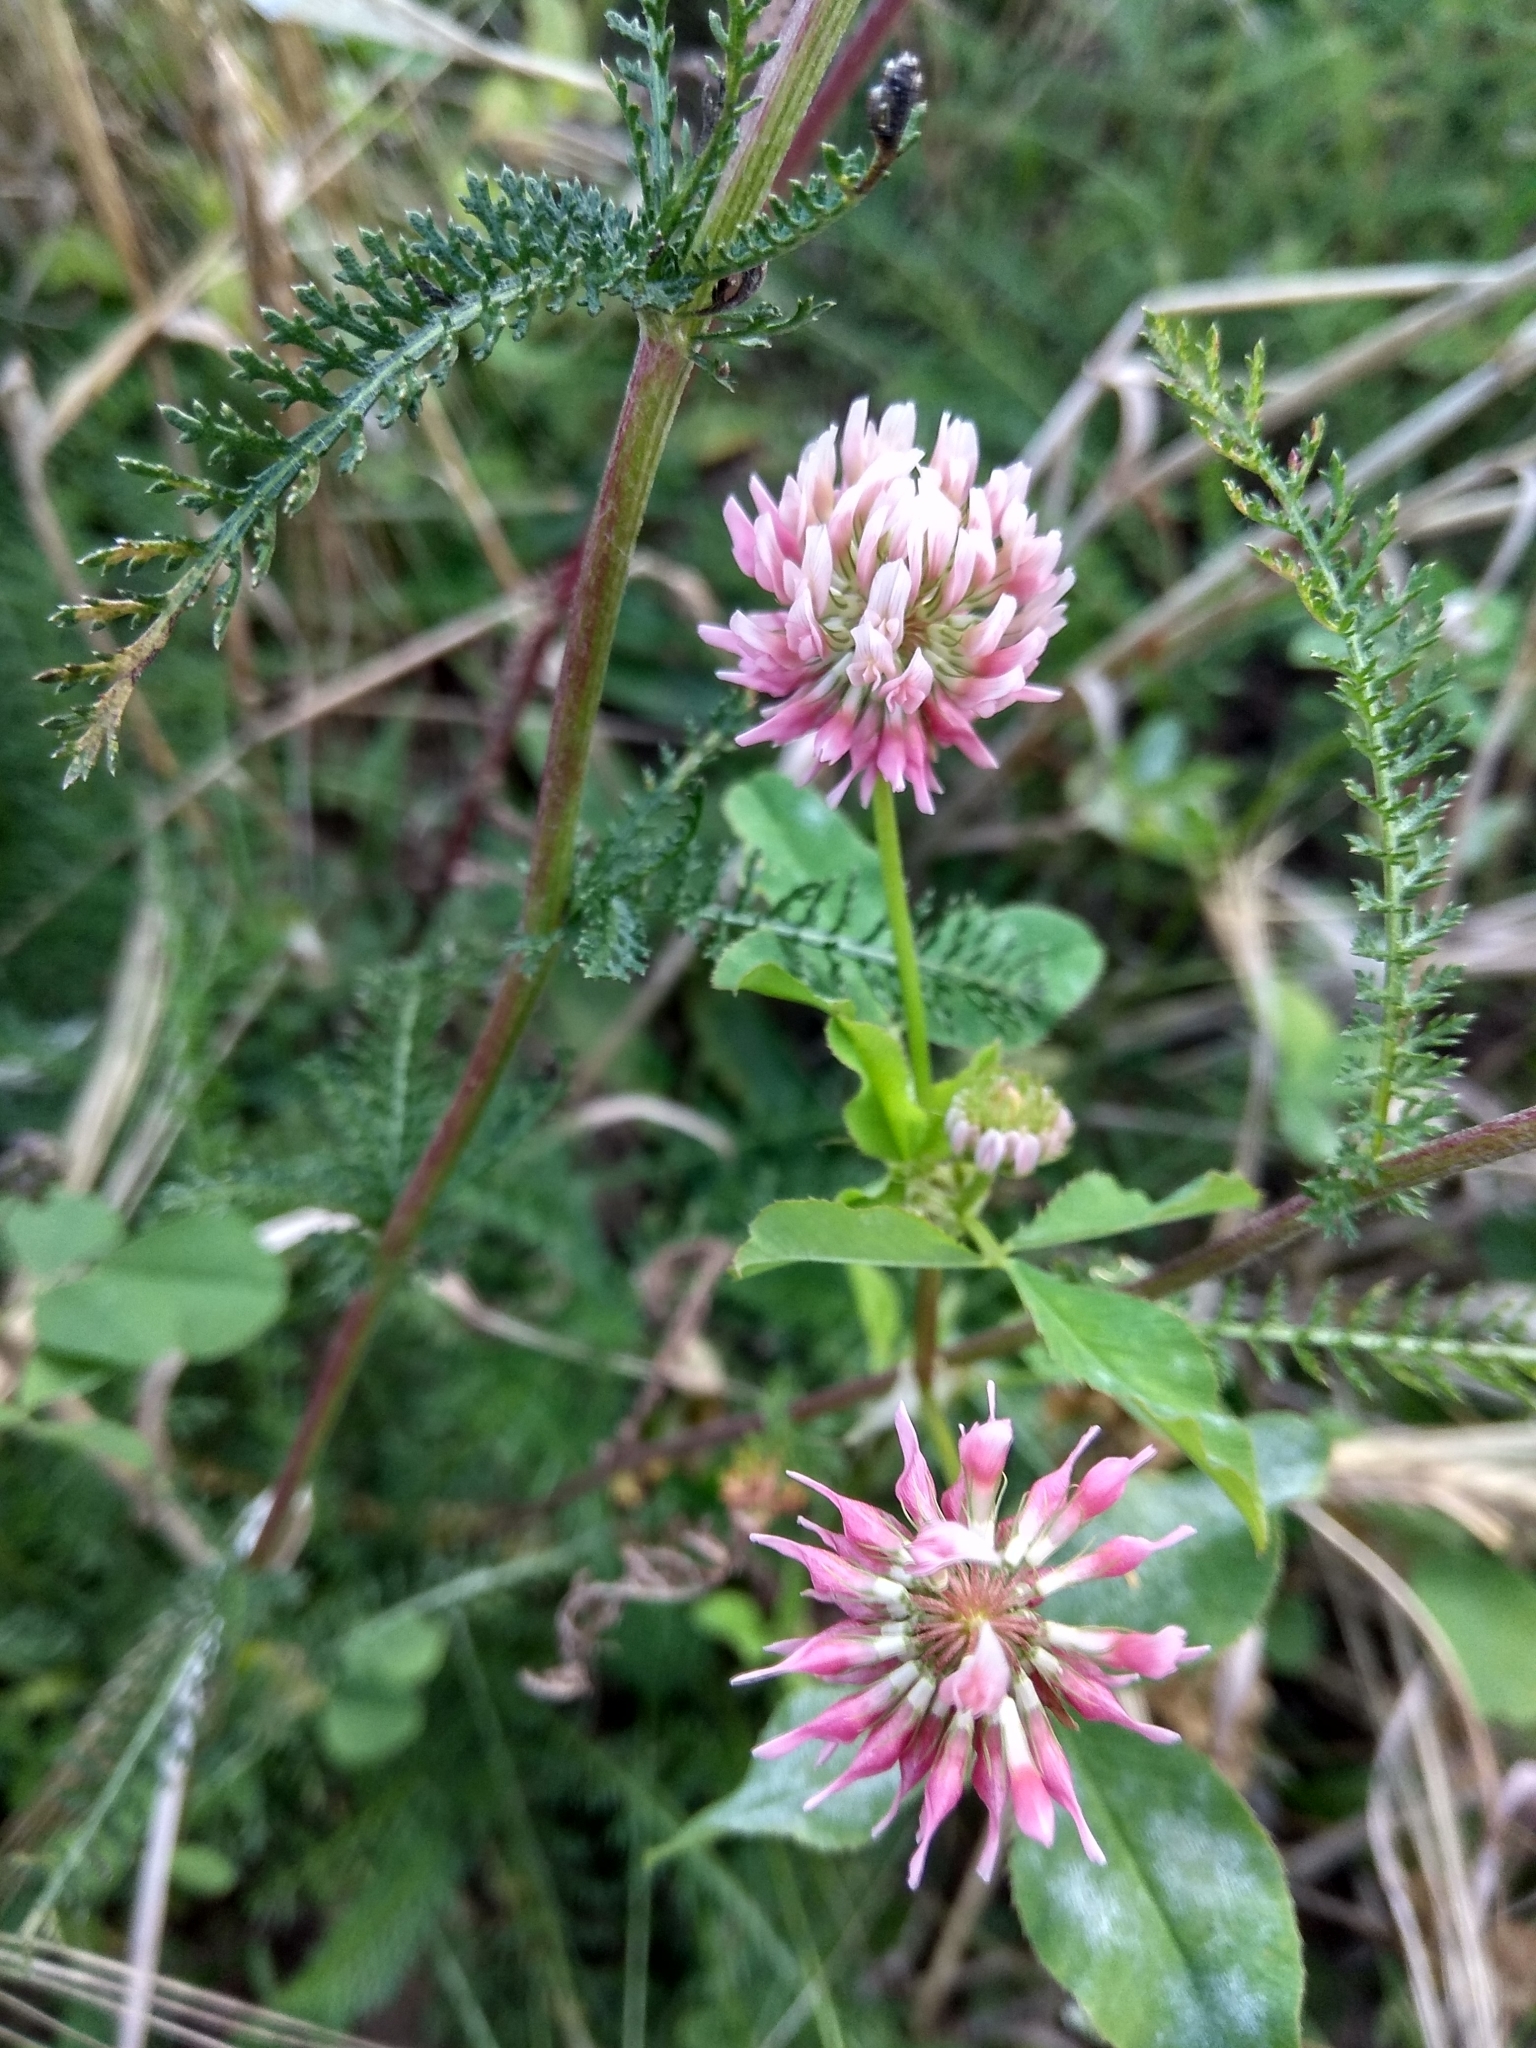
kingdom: Plantae
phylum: Tracheophyta
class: Magnoliopsida
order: Fabales
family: Fabaceae
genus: Trifolium
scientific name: Trifolium hybridum
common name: Alsike clover
